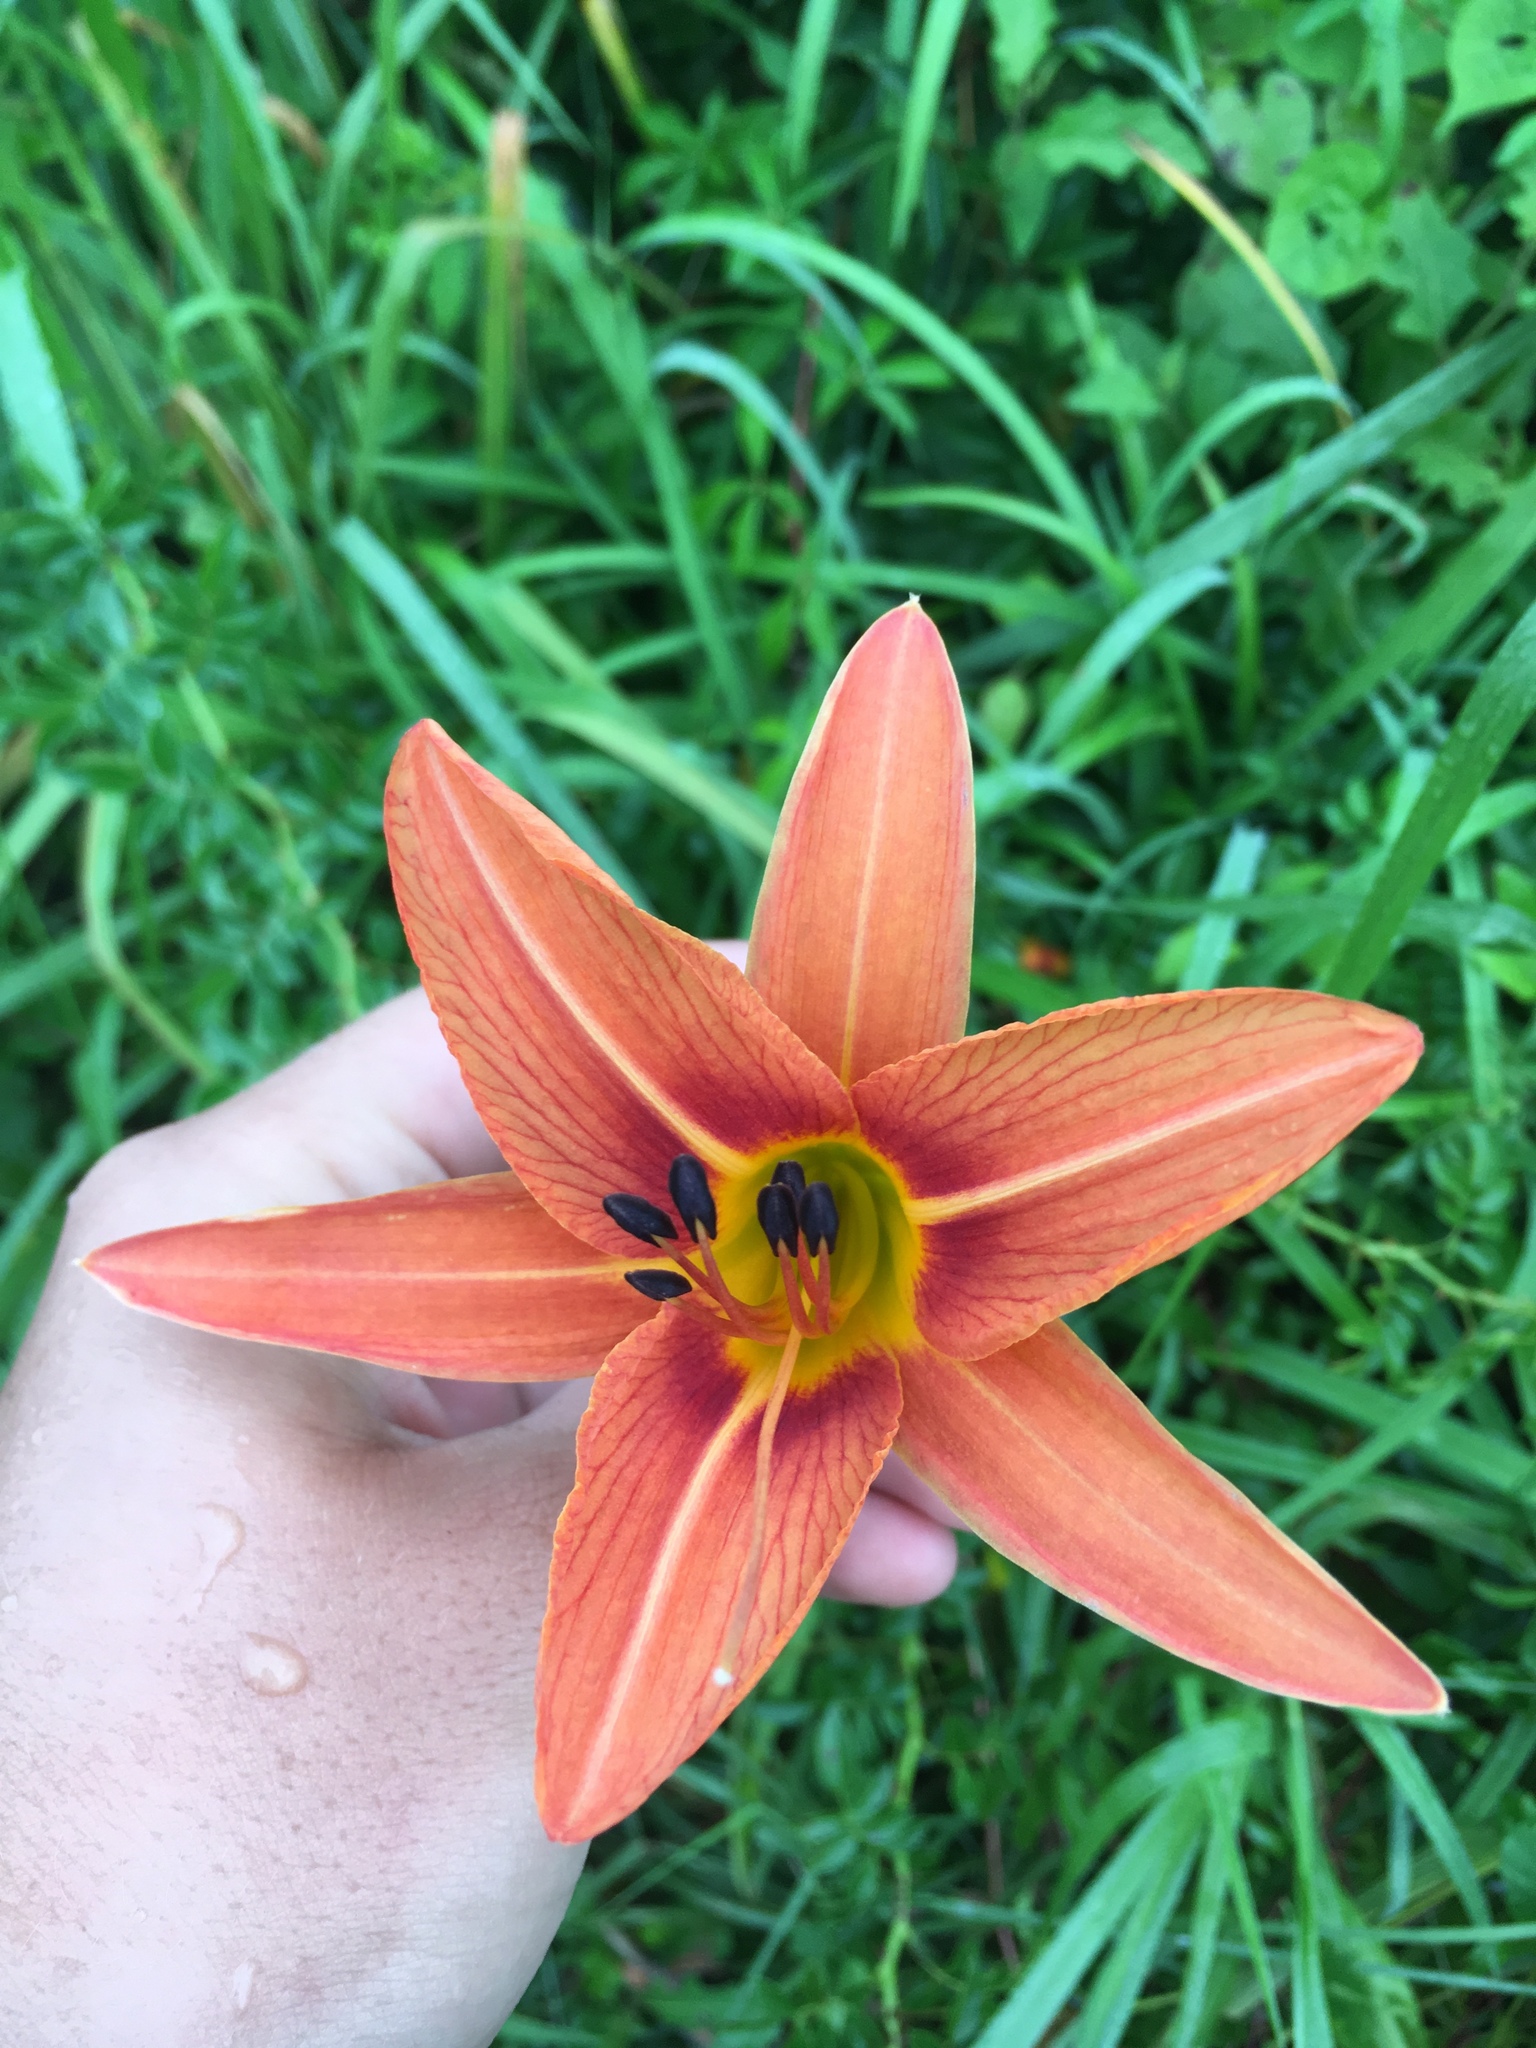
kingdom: Plantae
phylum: Tracheophyta
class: Liliopsida
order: Asparagales
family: Asphodelaceae
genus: Hemerocallis
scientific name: Hemerocallis fulva
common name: Orange day-lily
